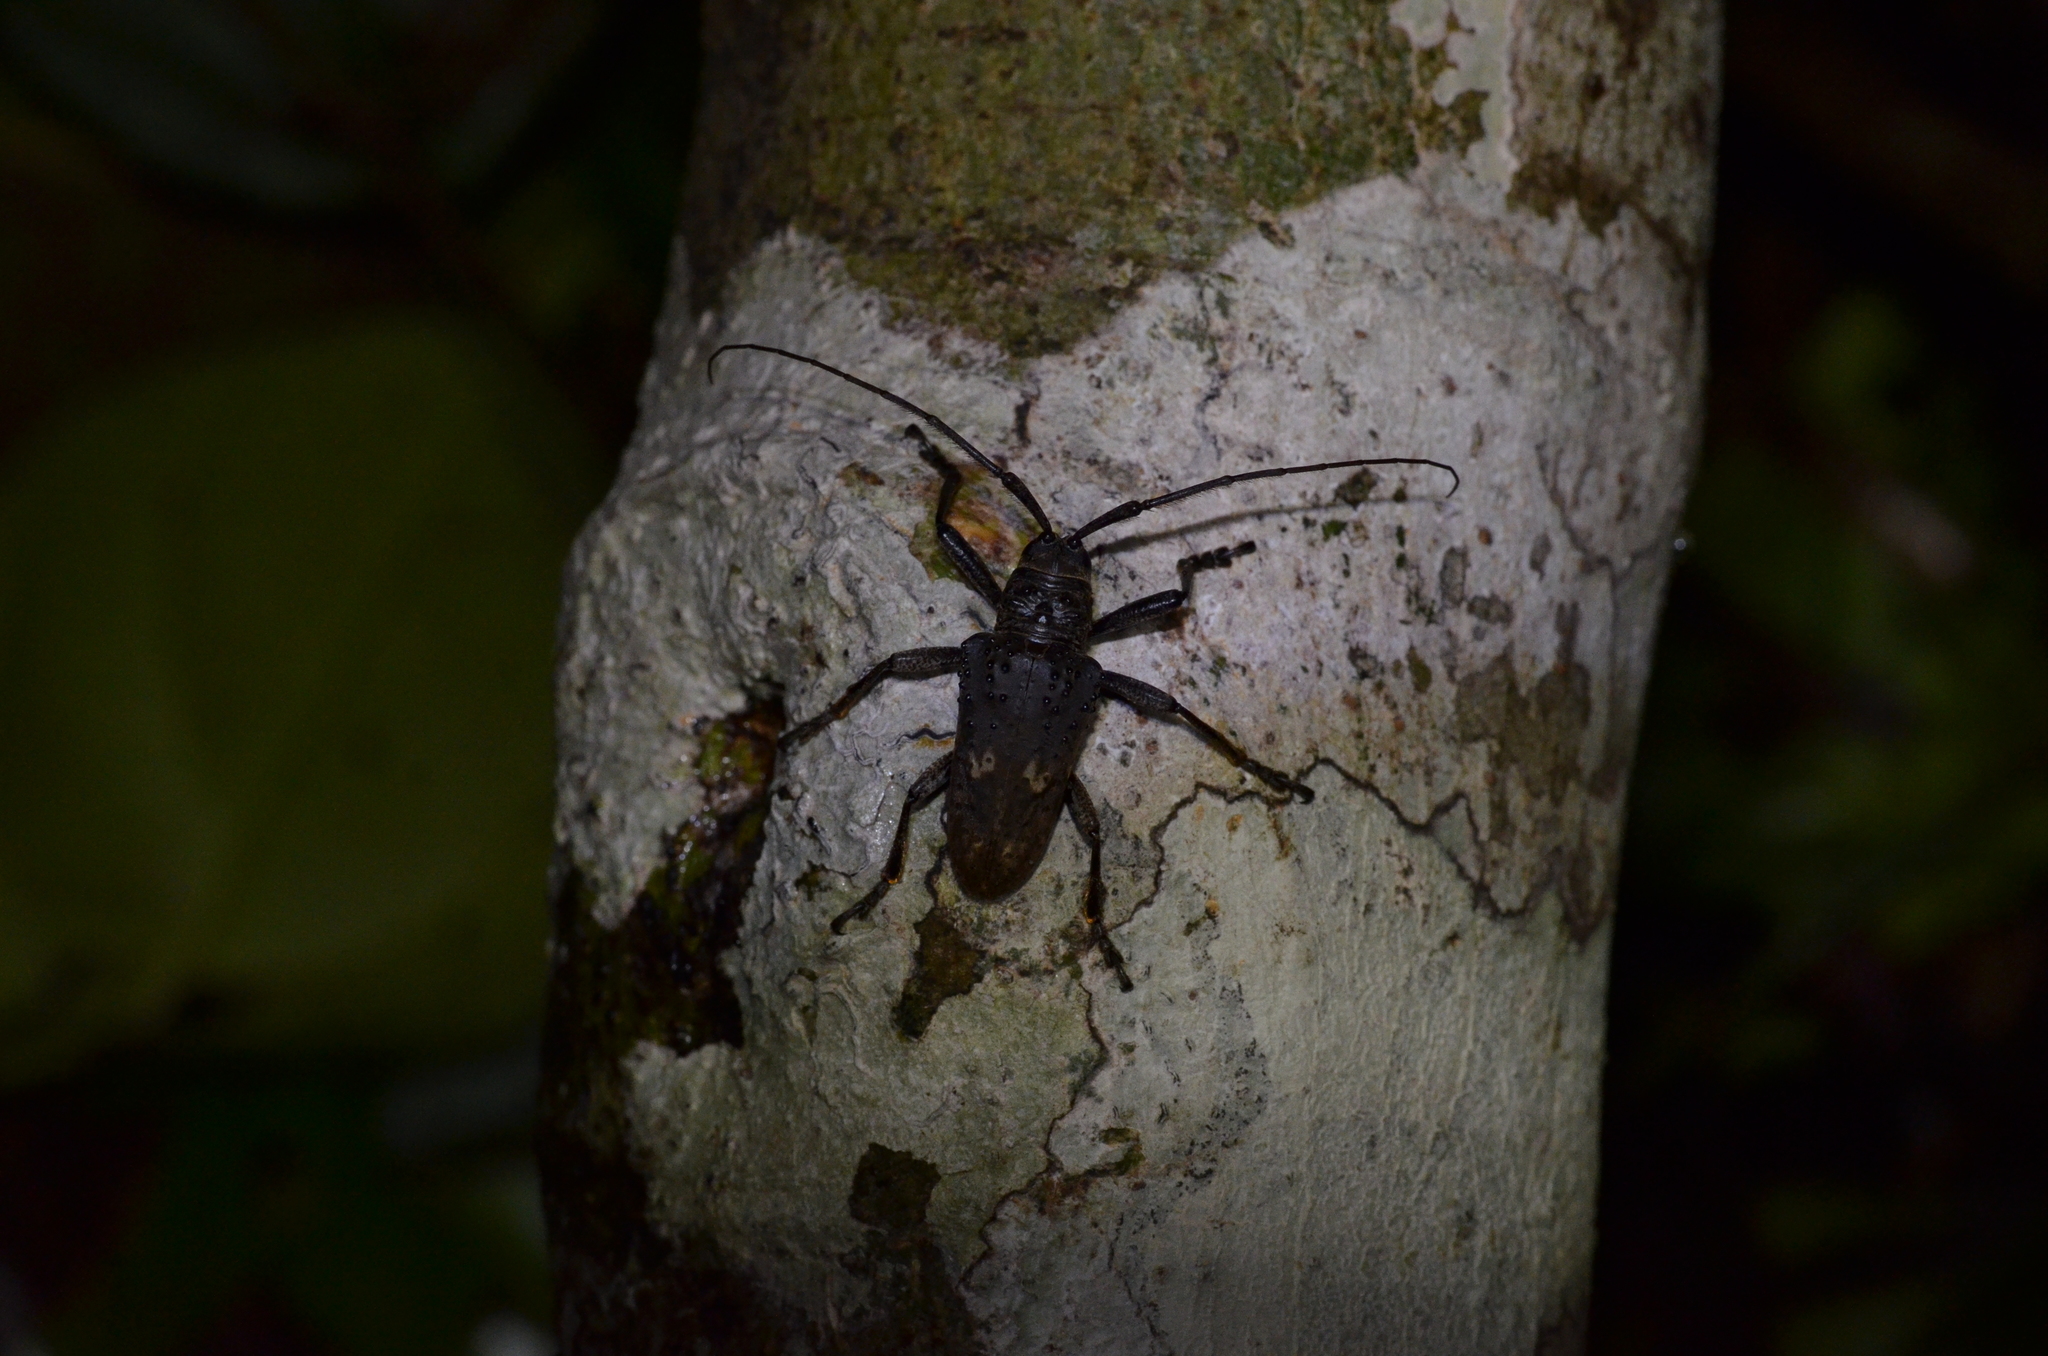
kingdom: Animalia
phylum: Arthropoda
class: Insecta
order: Coleoptera
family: Cerambycidae
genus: Jamesia
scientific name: Jamesia globifera
